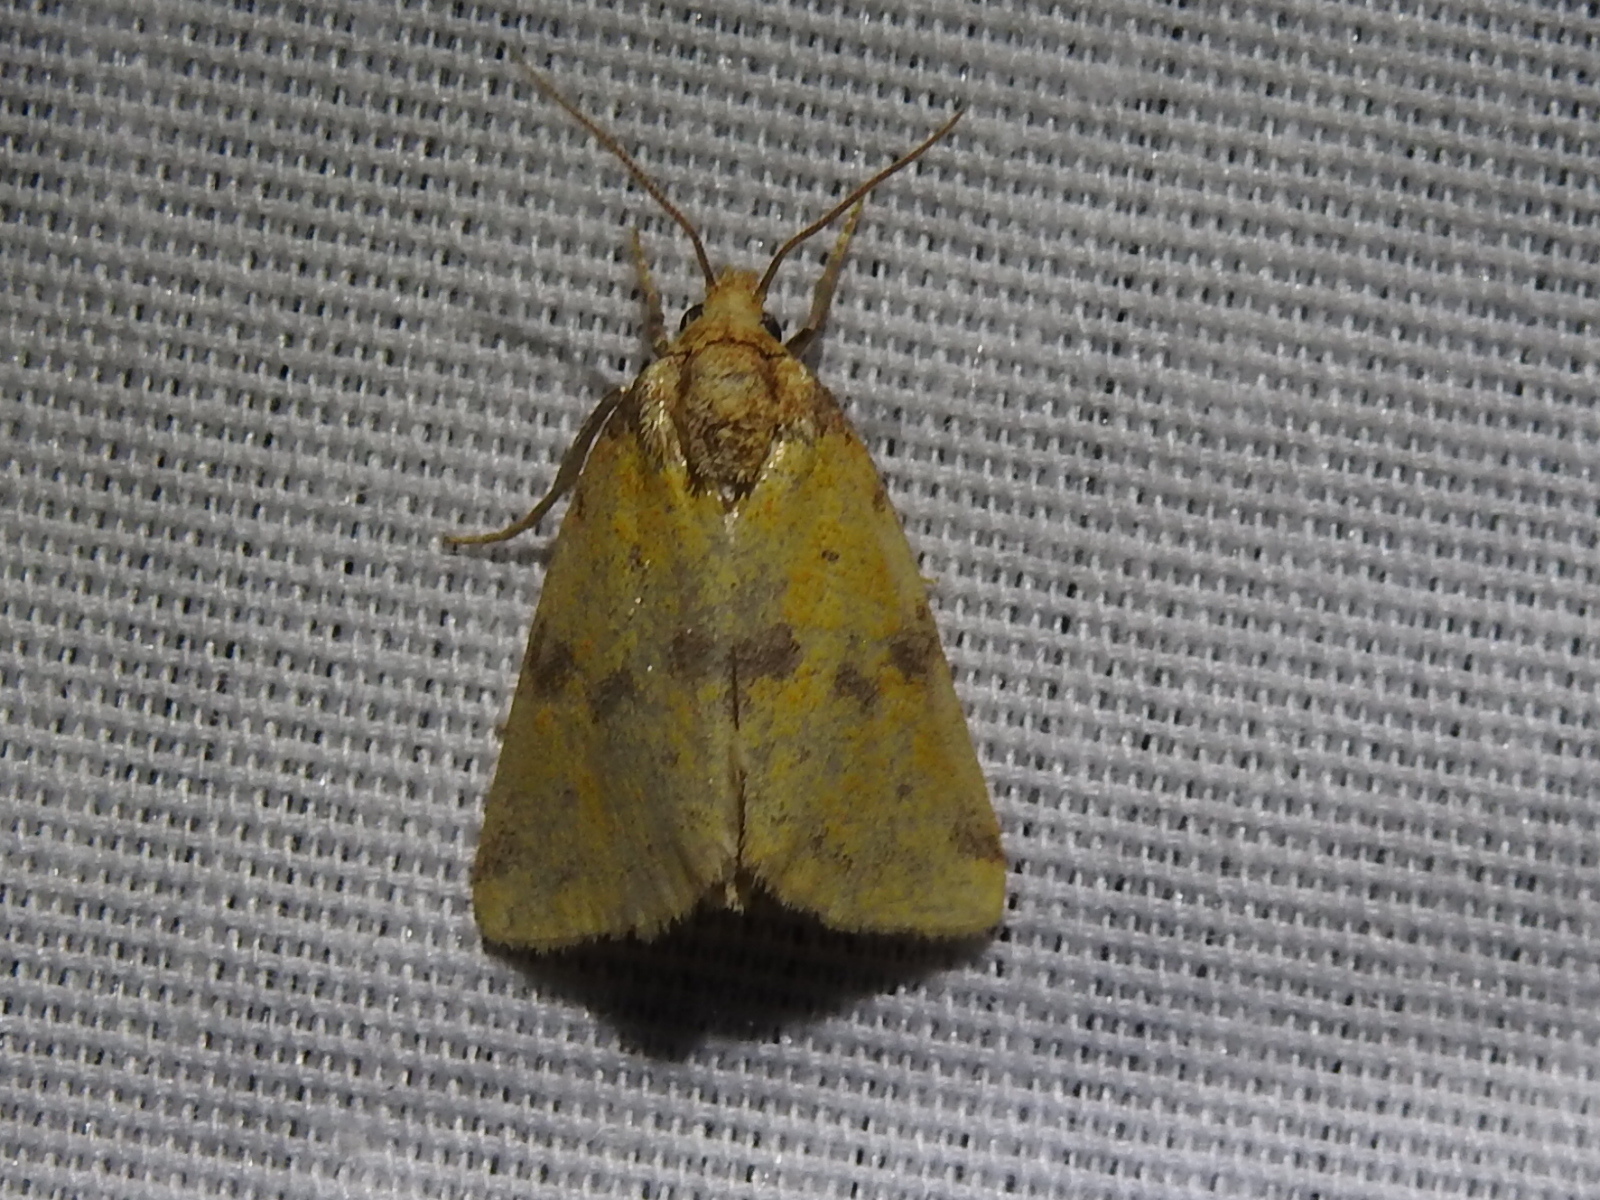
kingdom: Animalia
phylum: Arthropoda
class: Insecta
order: Lepidoptera
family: Noctuidae
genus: Azenia
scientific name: Azenia obtusa
